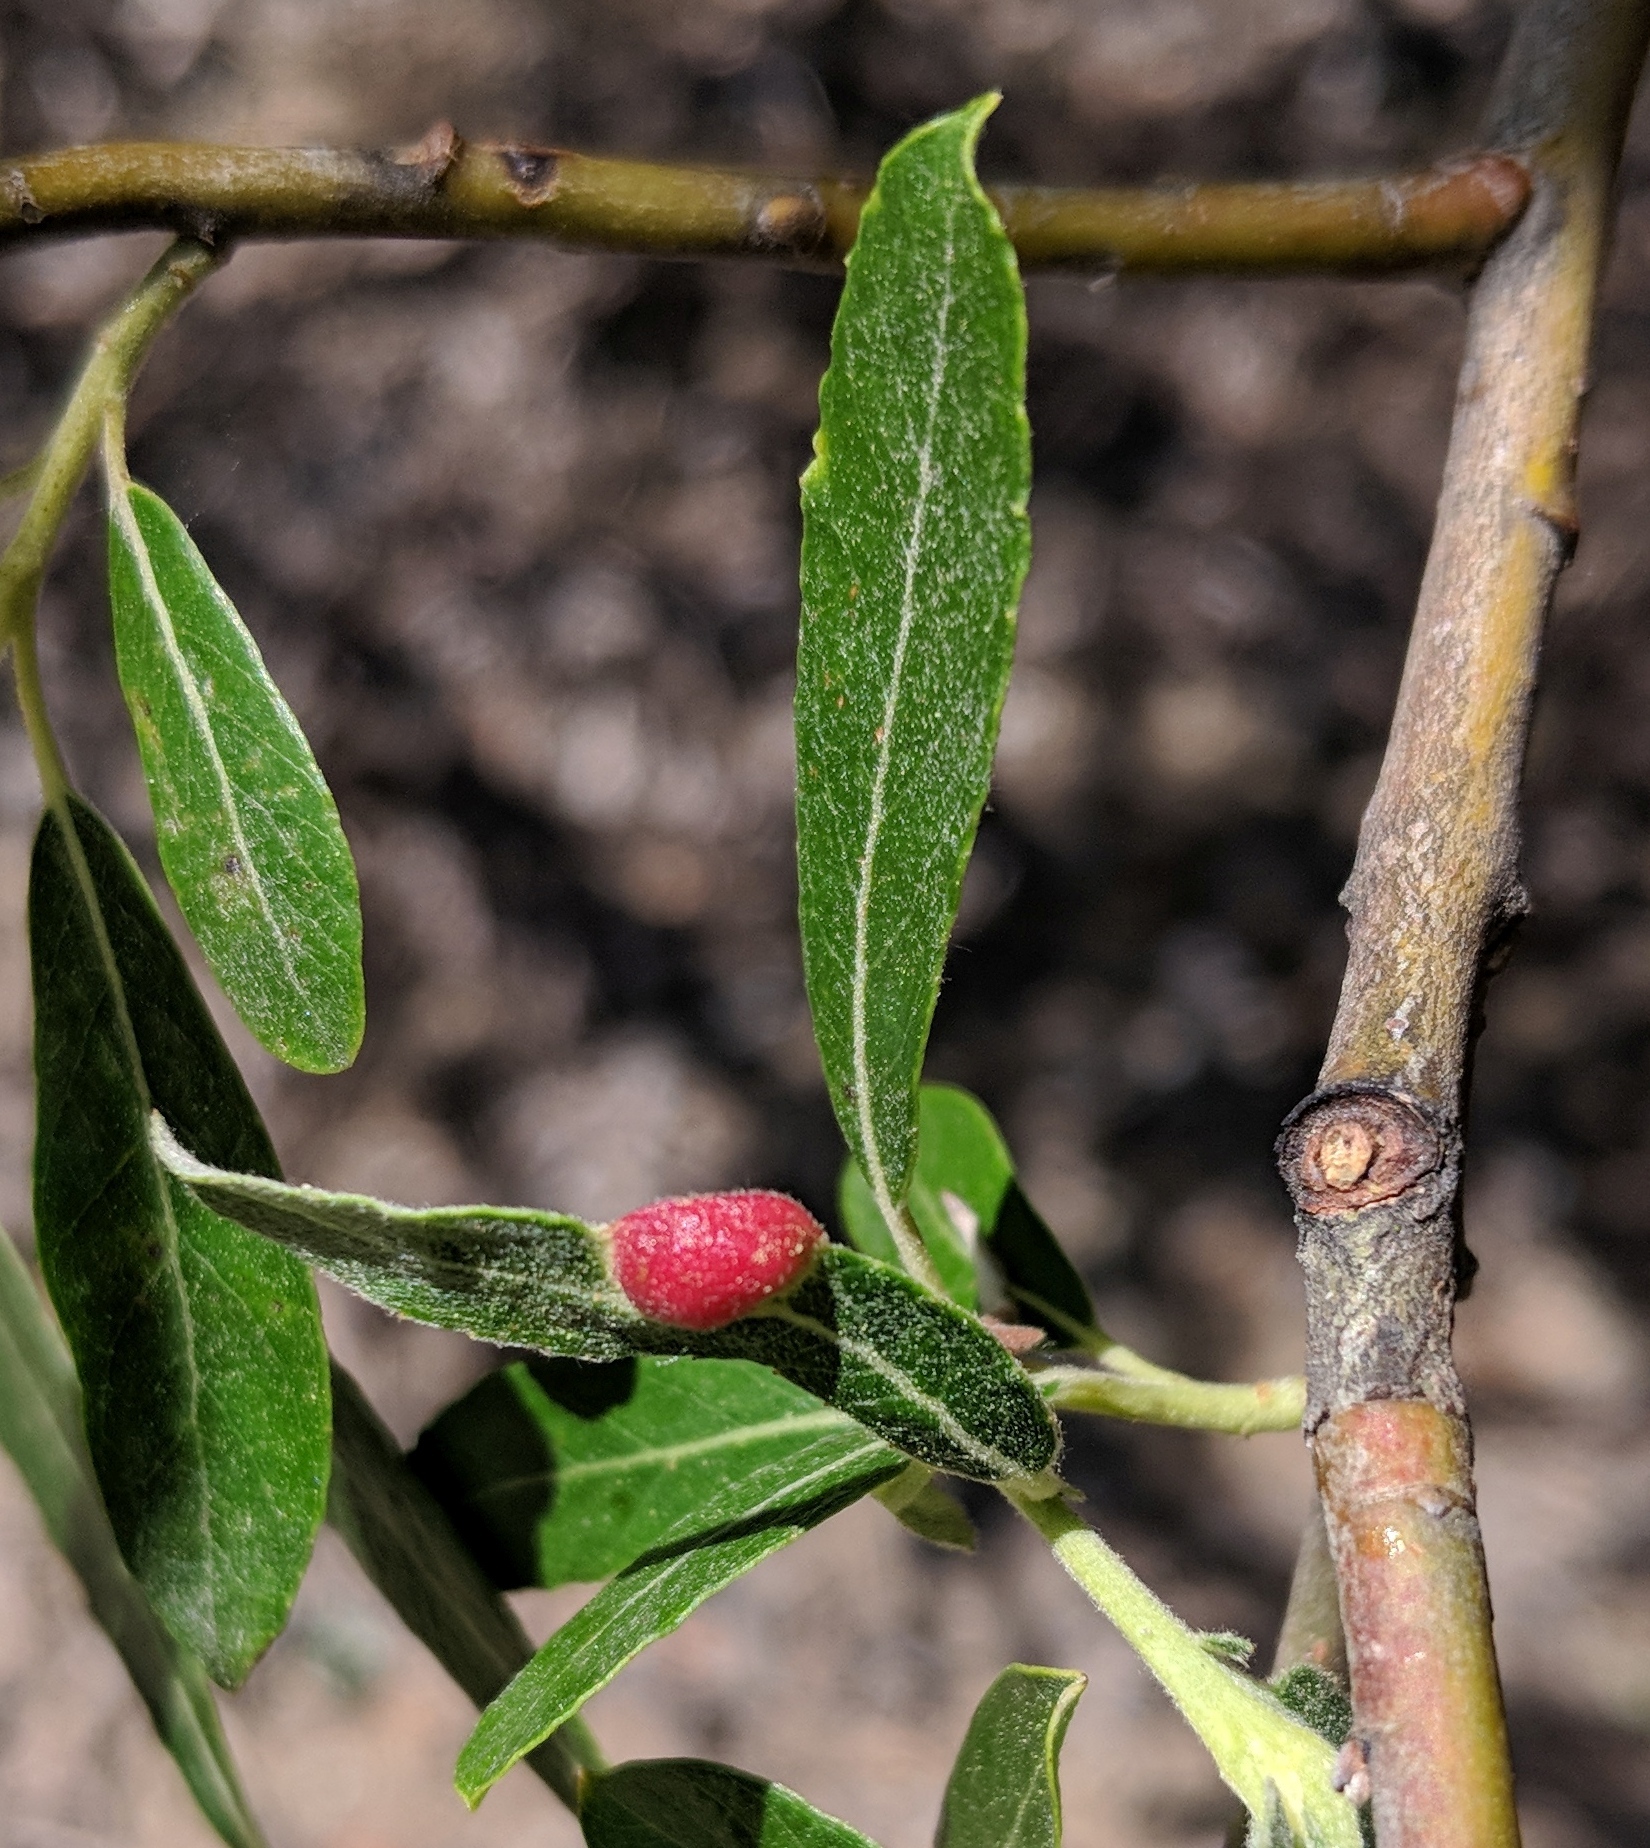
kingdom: Animalia
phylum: Arthropoda
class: Insecta
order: Hymenoptera
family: Tenthredinidae
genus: Euura
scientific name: Euura
